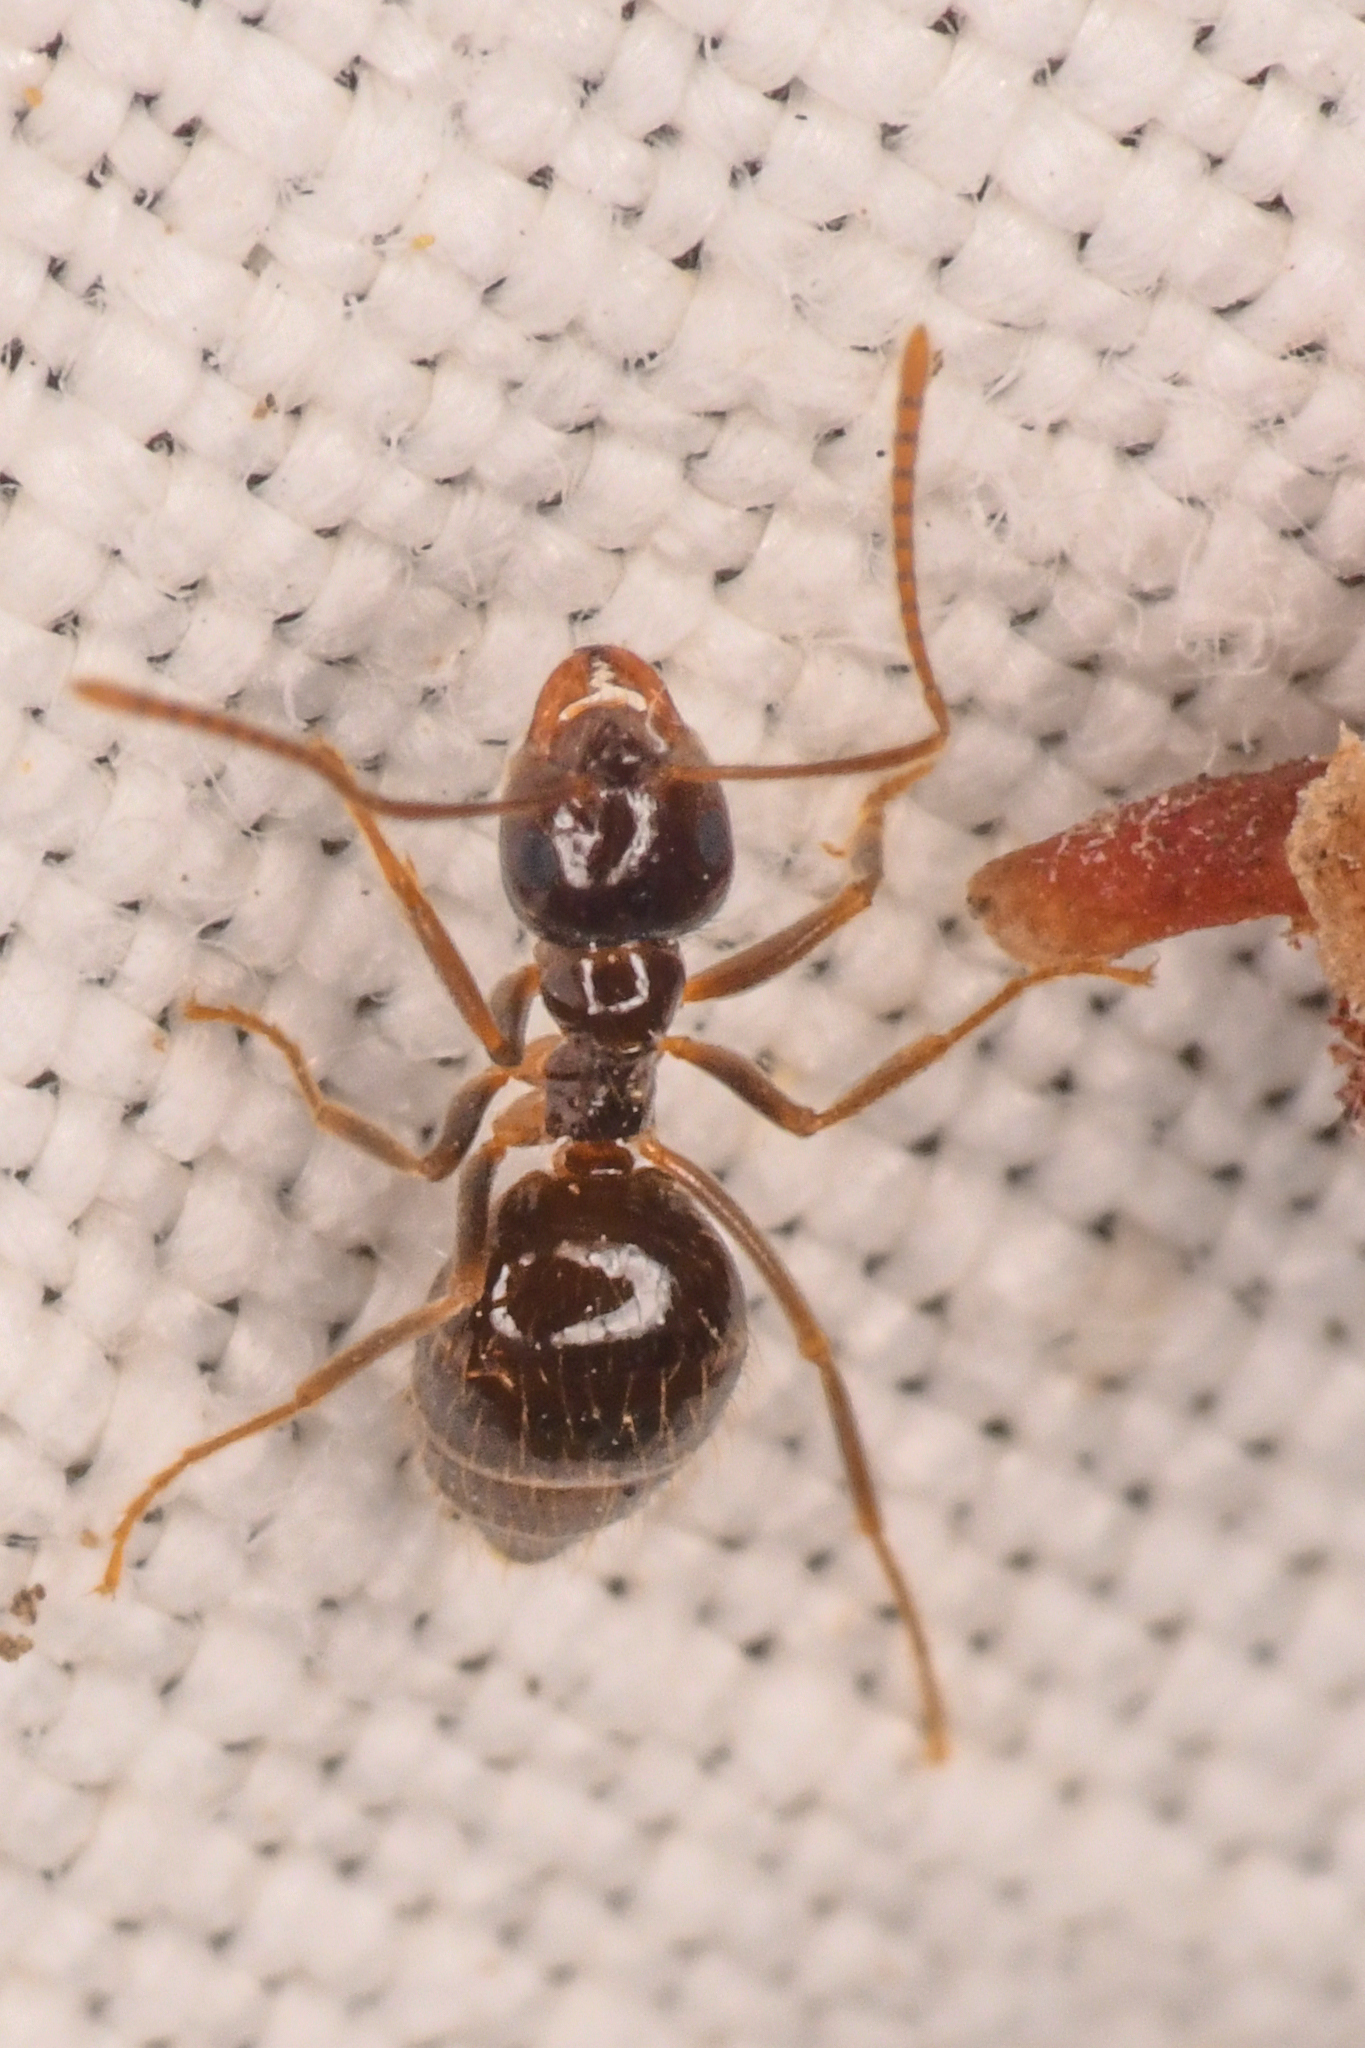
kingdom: Animalia
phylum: Arthropoda
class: Insecta
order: Hymenoptera
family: Formicidae
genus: Prenolepis
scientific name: Prenolepis imparis
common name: Small honey ant
